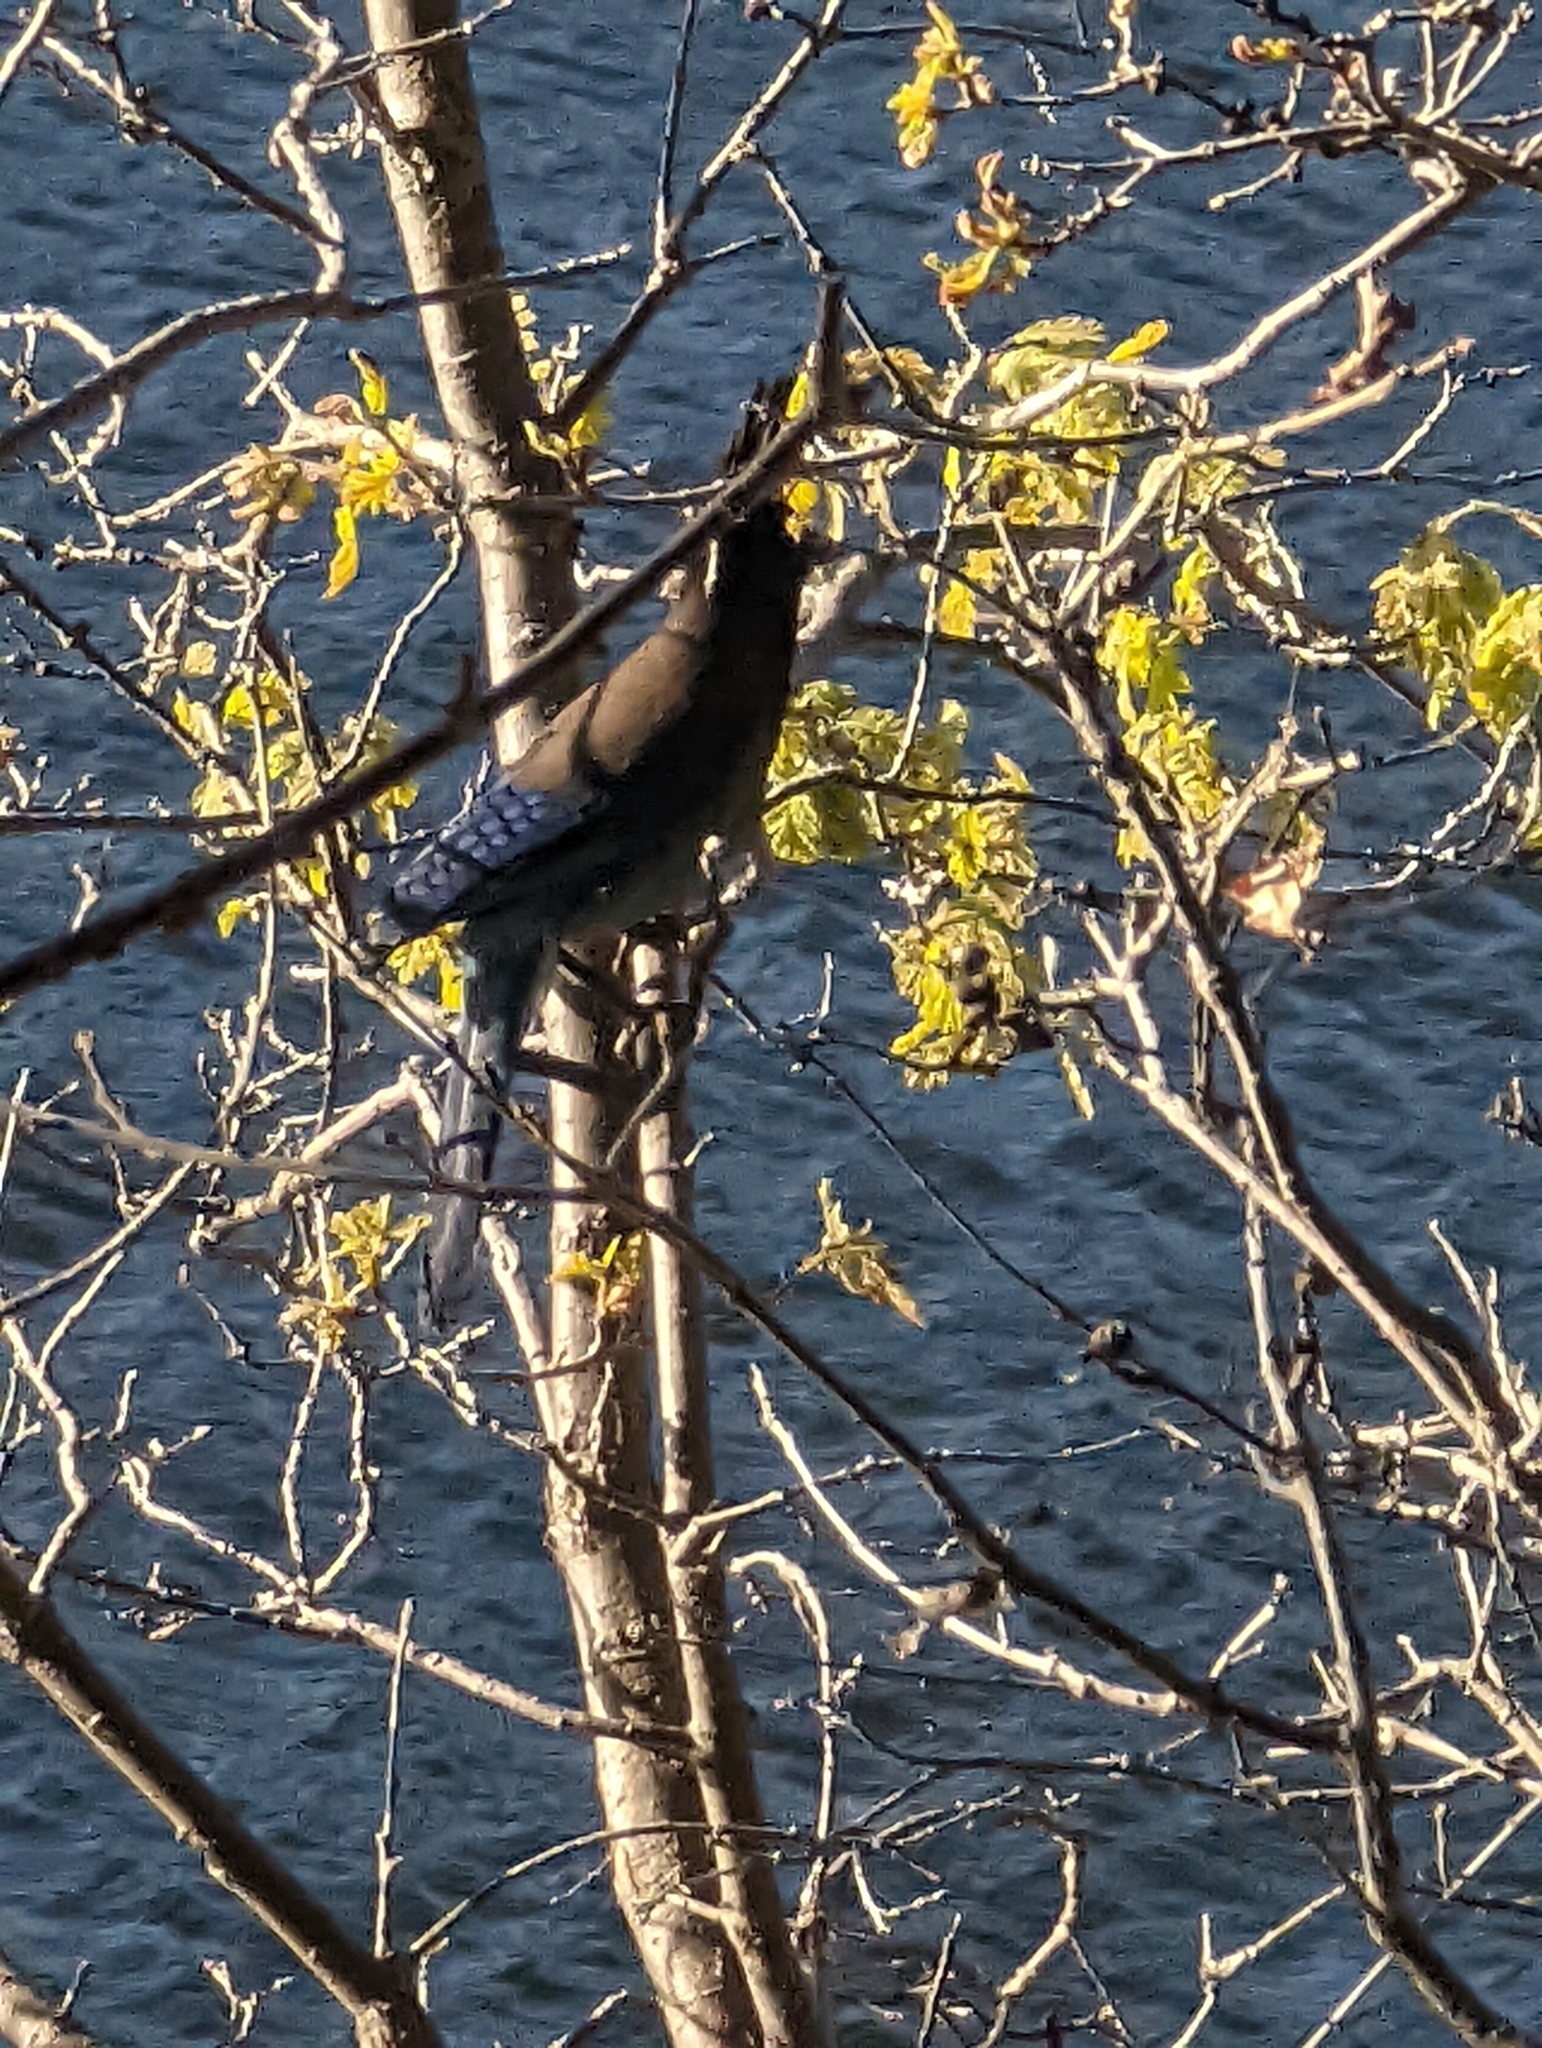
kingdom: Animalia
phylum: Chordata
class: Aves
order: Passeriformes
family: Corvidae
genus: Cyanocitta
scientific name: Cyanocitta stelleri
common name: Steller's jay
